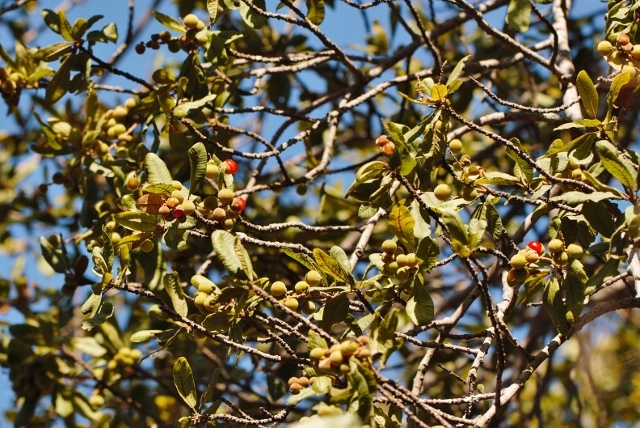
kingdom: Plantae
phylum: Tracheophyta
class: Magnoliopsida
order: Sapindales
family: Sapindaceae
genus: Pappea
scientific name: Pappea capensis
